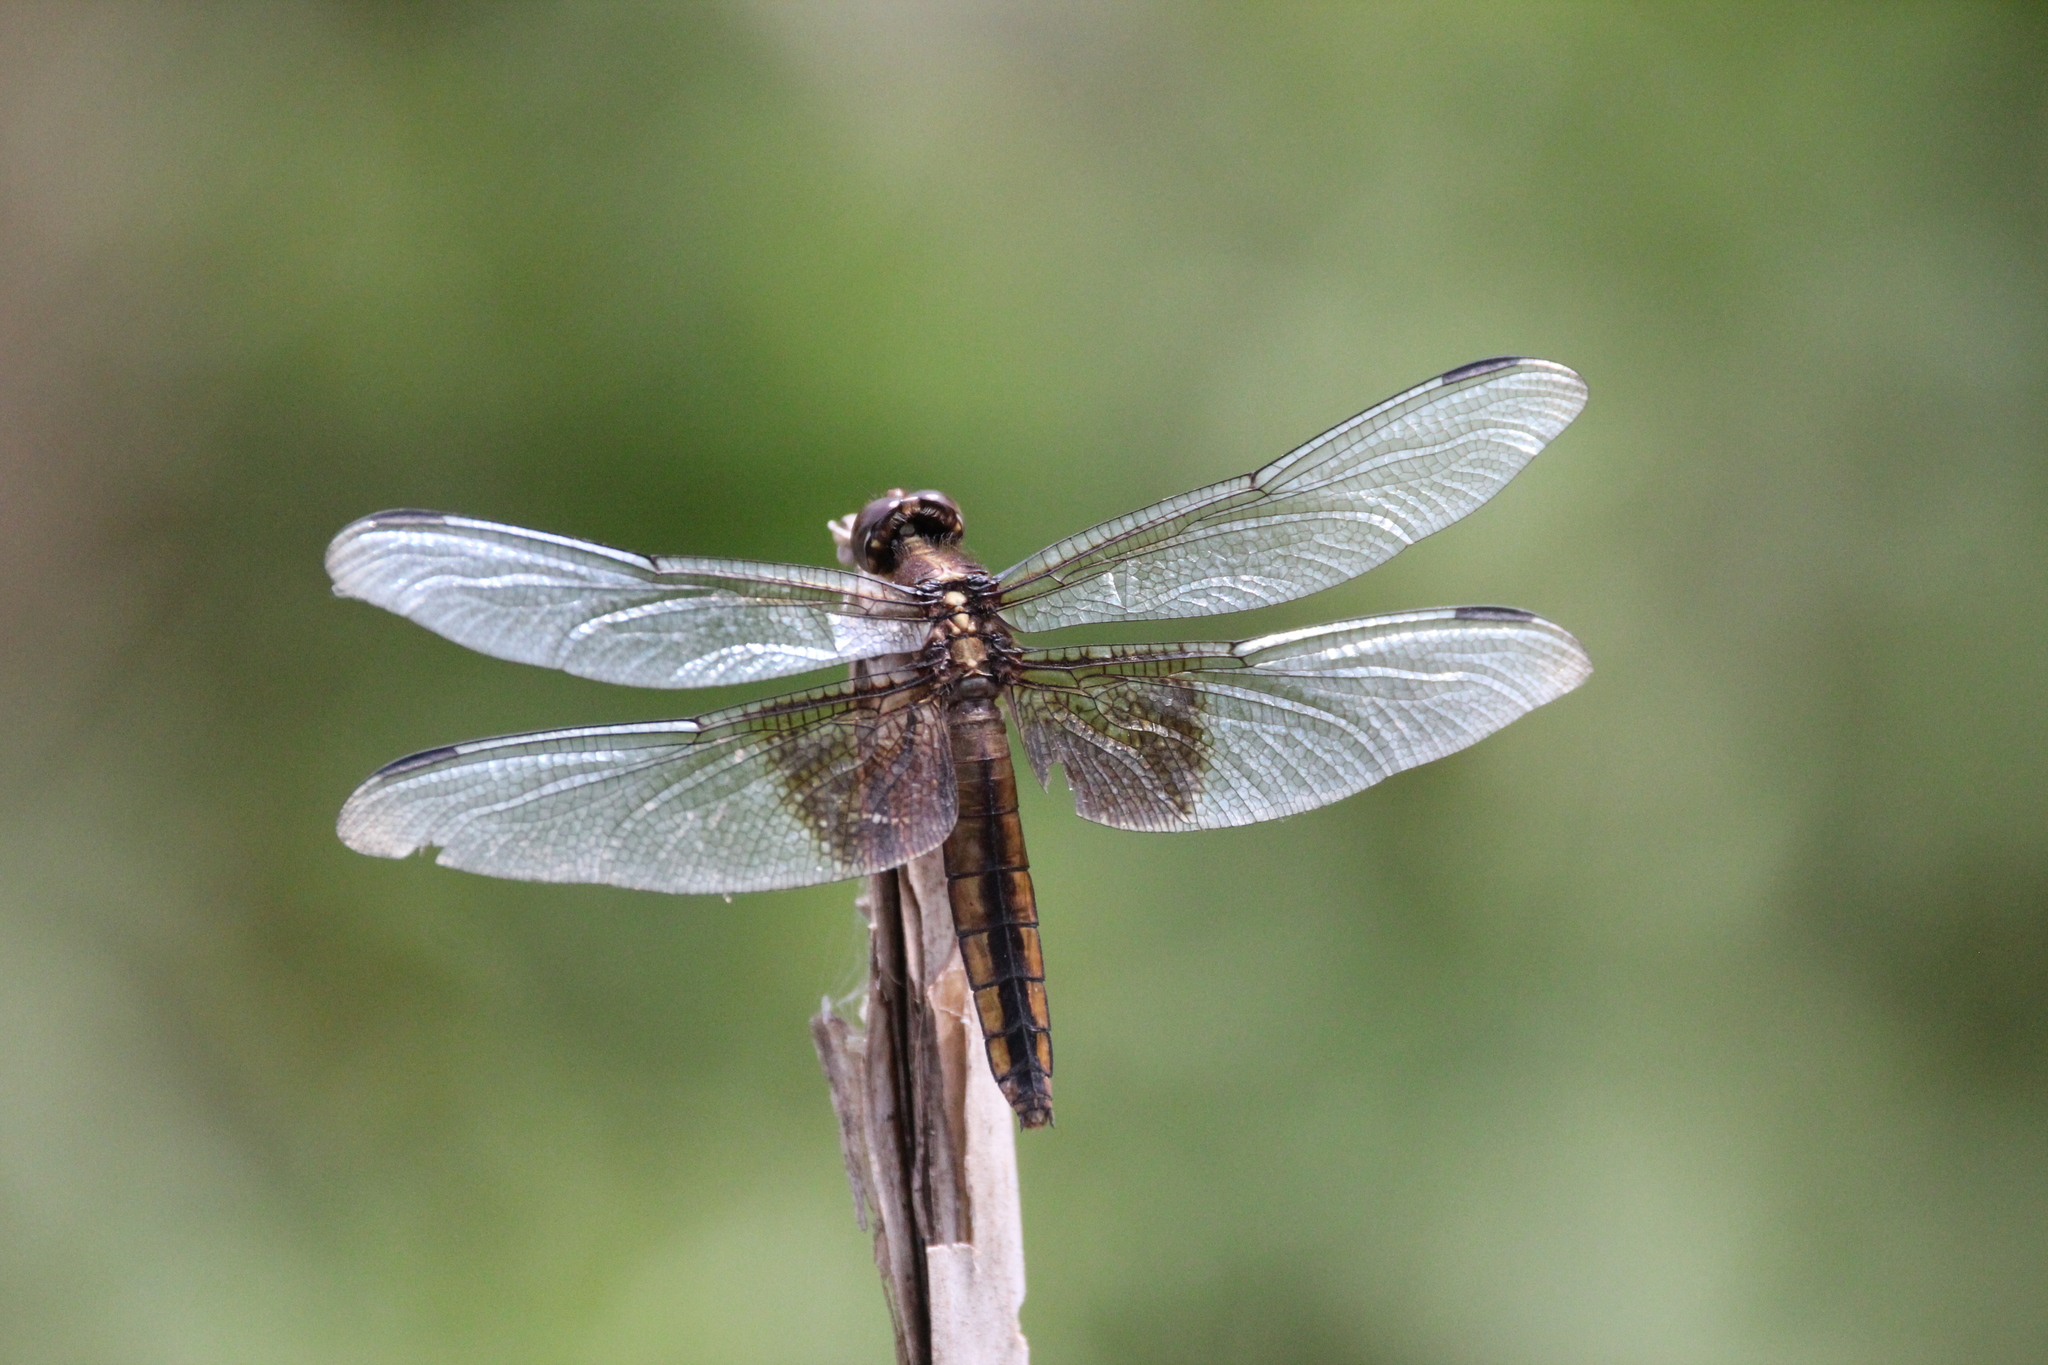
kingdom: Animalia
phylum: Arthropoda
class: Insecta
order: Odonata
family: Libellulidae
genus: Libellula
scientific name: Libellula luctuosa
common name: Widow skimmer
